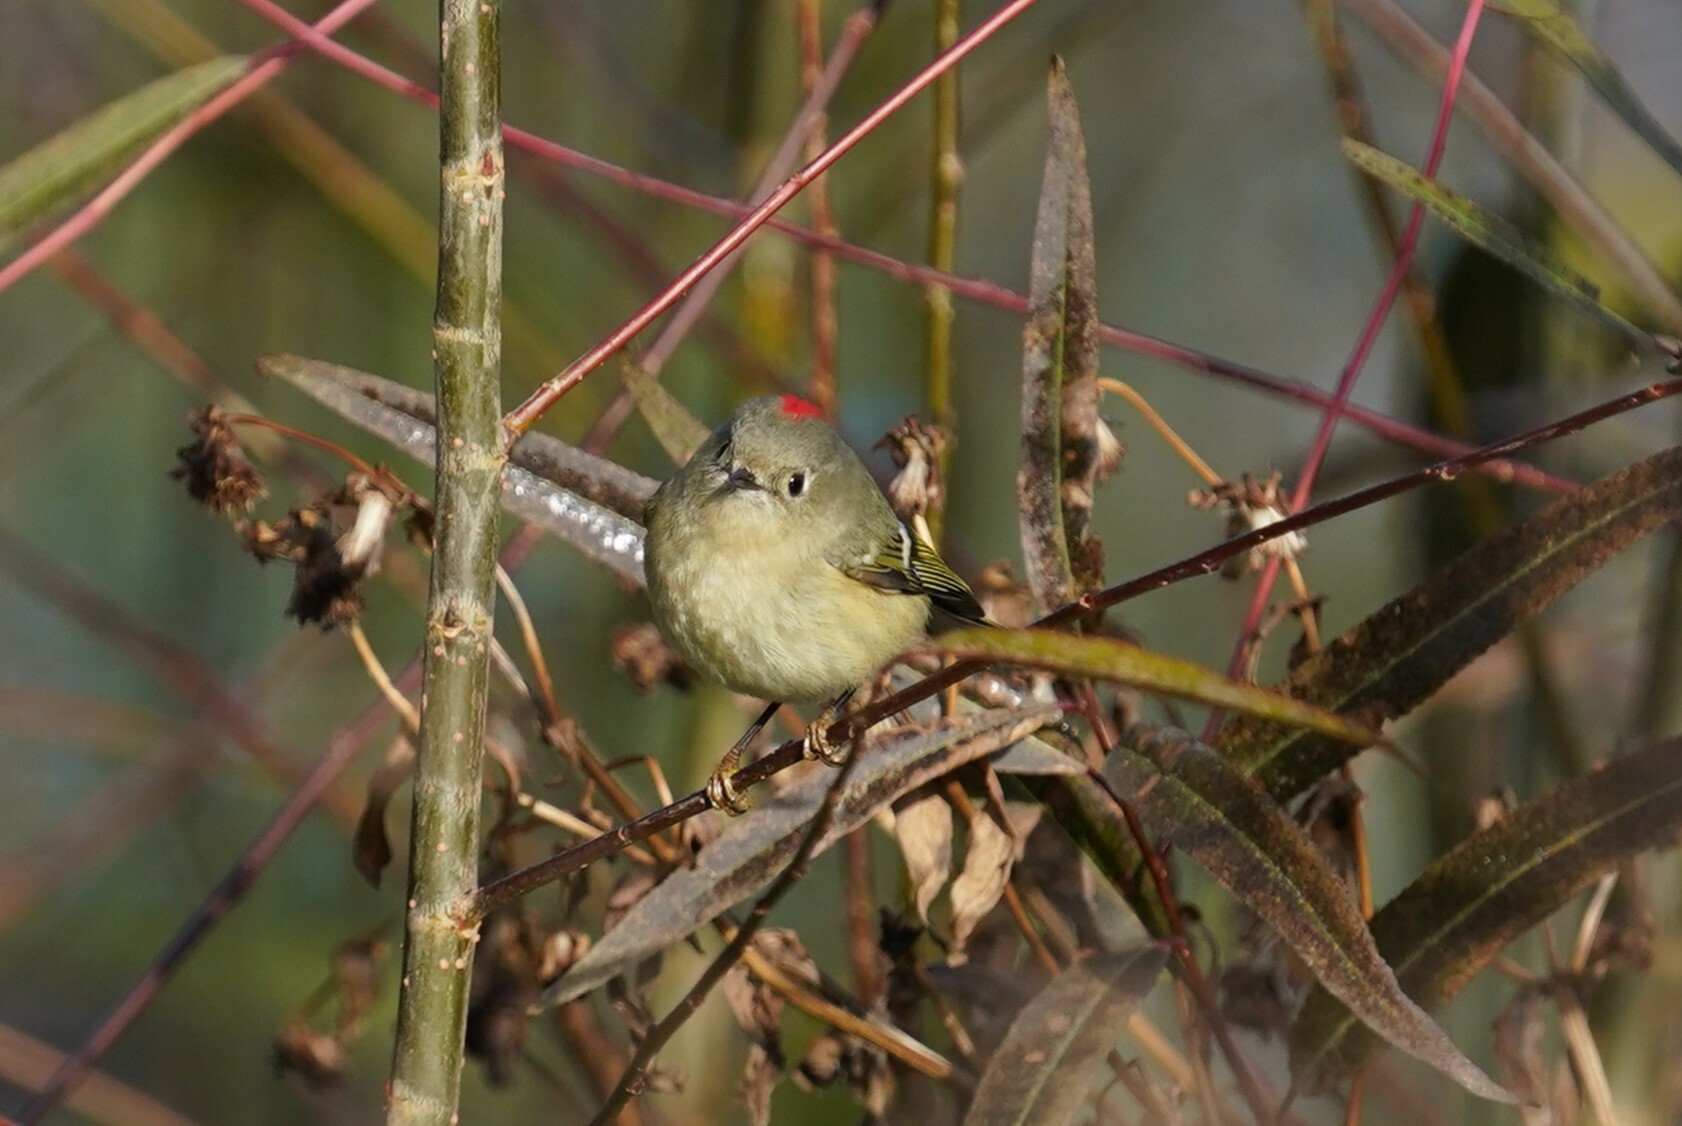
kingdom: Animalia
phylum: Chordata
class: Aves
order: Passeriformes
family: Regulidae
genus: Regulus
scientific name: Regulus calendula
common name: Ruby-crowned kinglet
